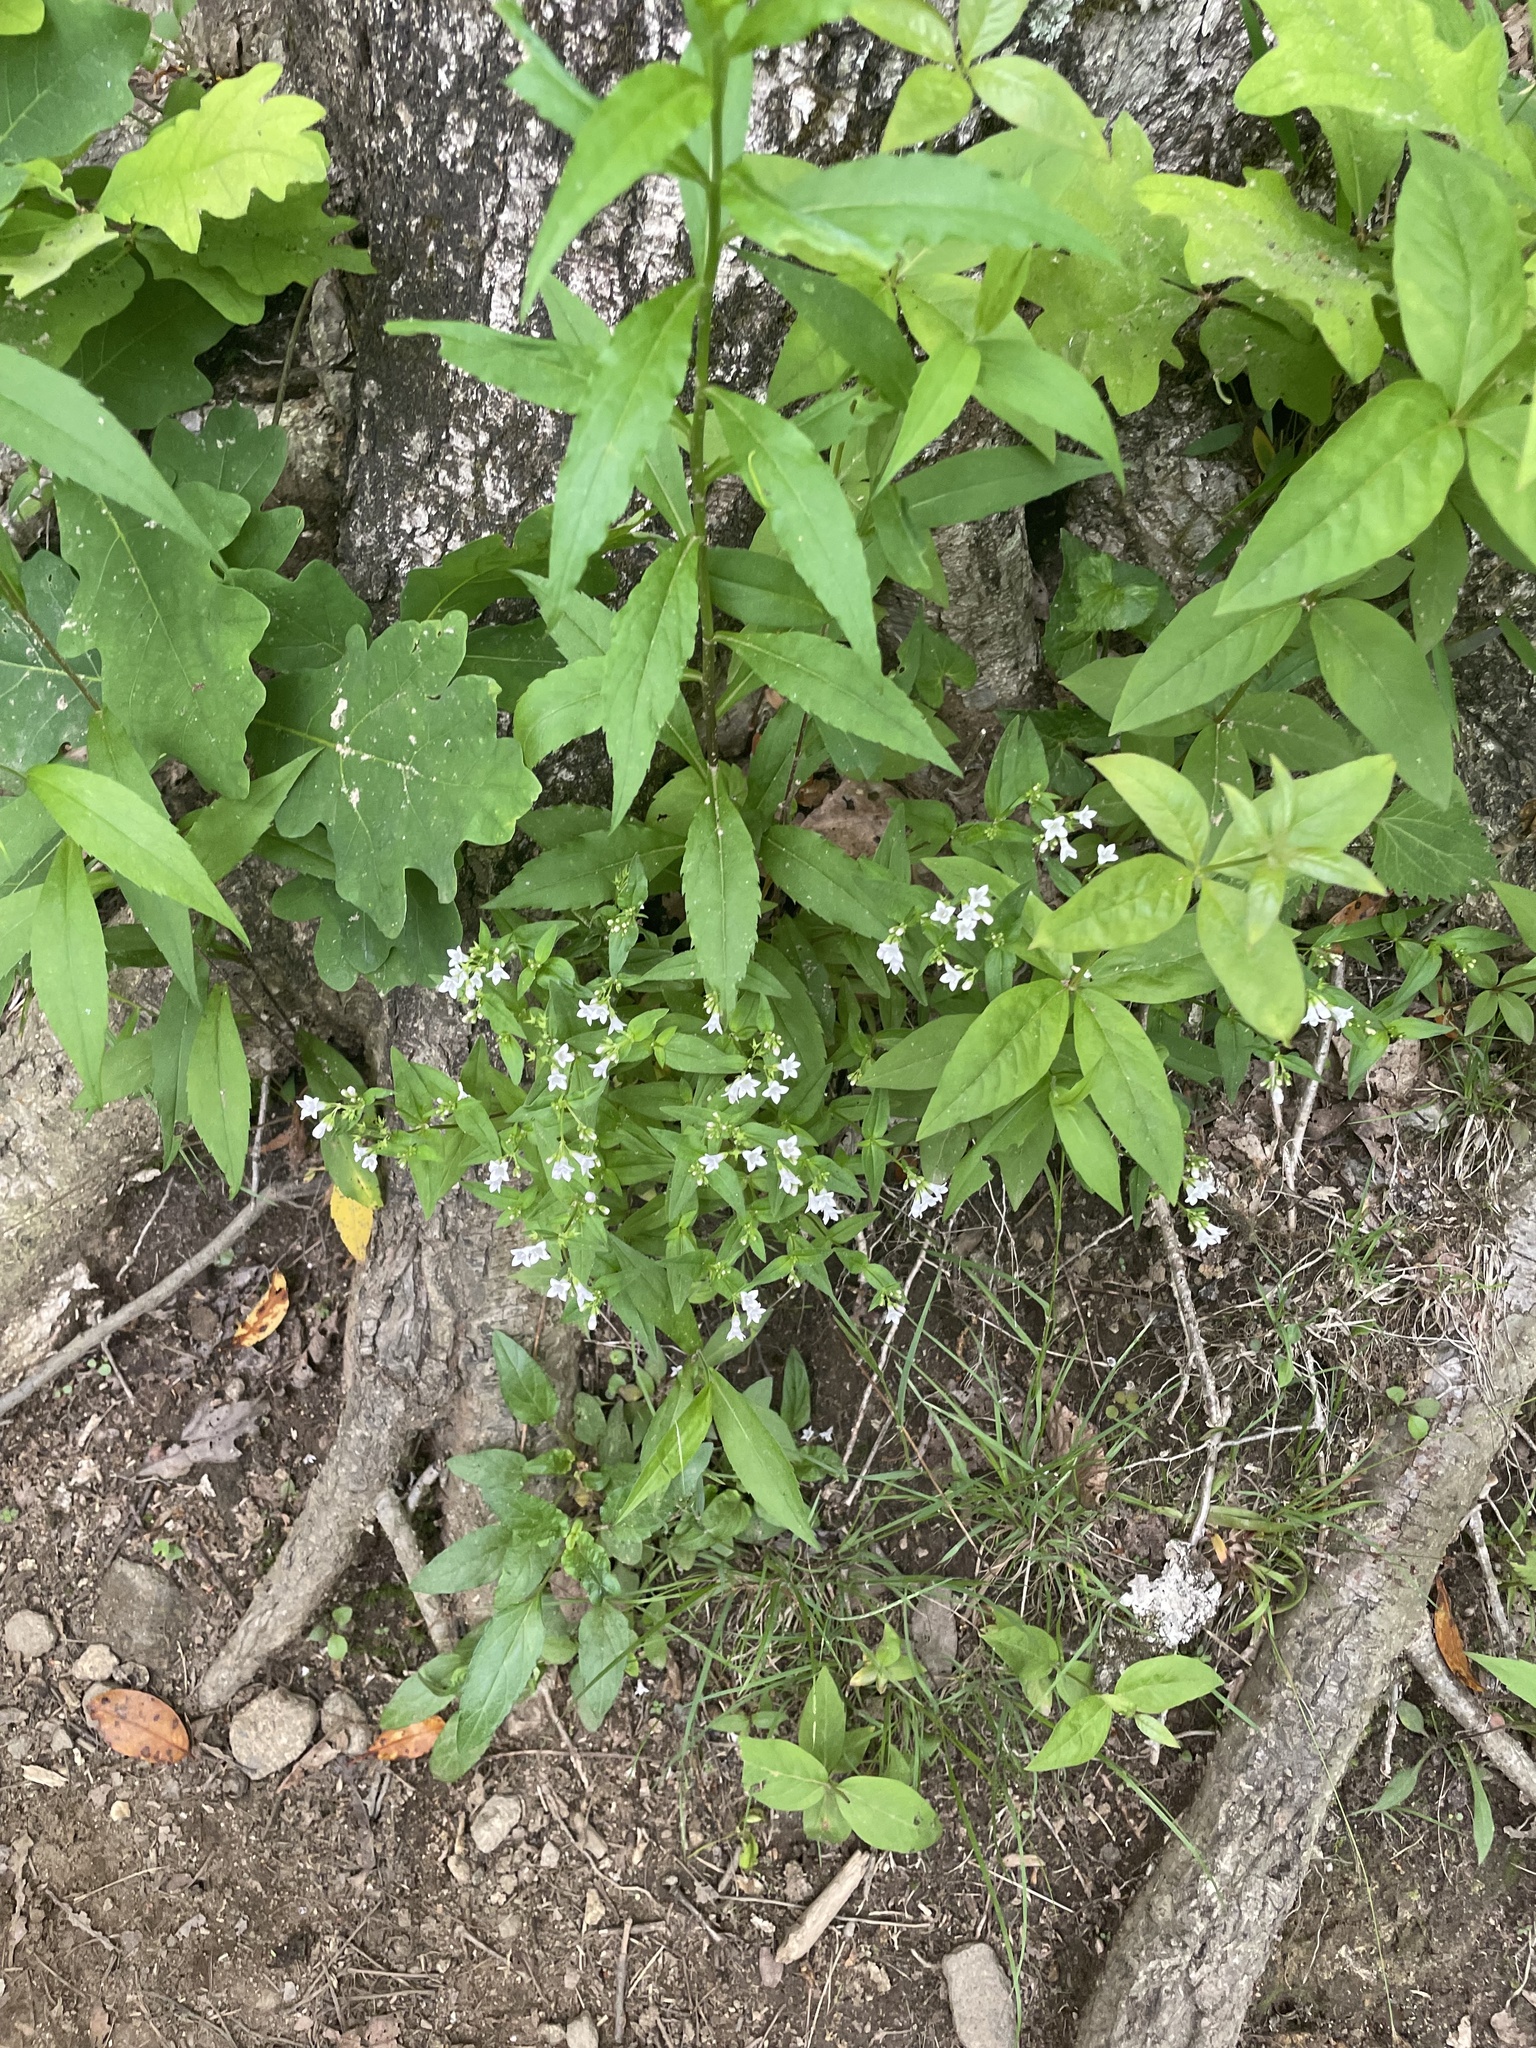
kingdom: Plantae
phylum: Tracheophyta
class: Magnoliopsida
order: Gentianales
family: Rubiaceae
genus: Houstonia
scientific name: Houstonia purpurea
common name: Summer bluet
